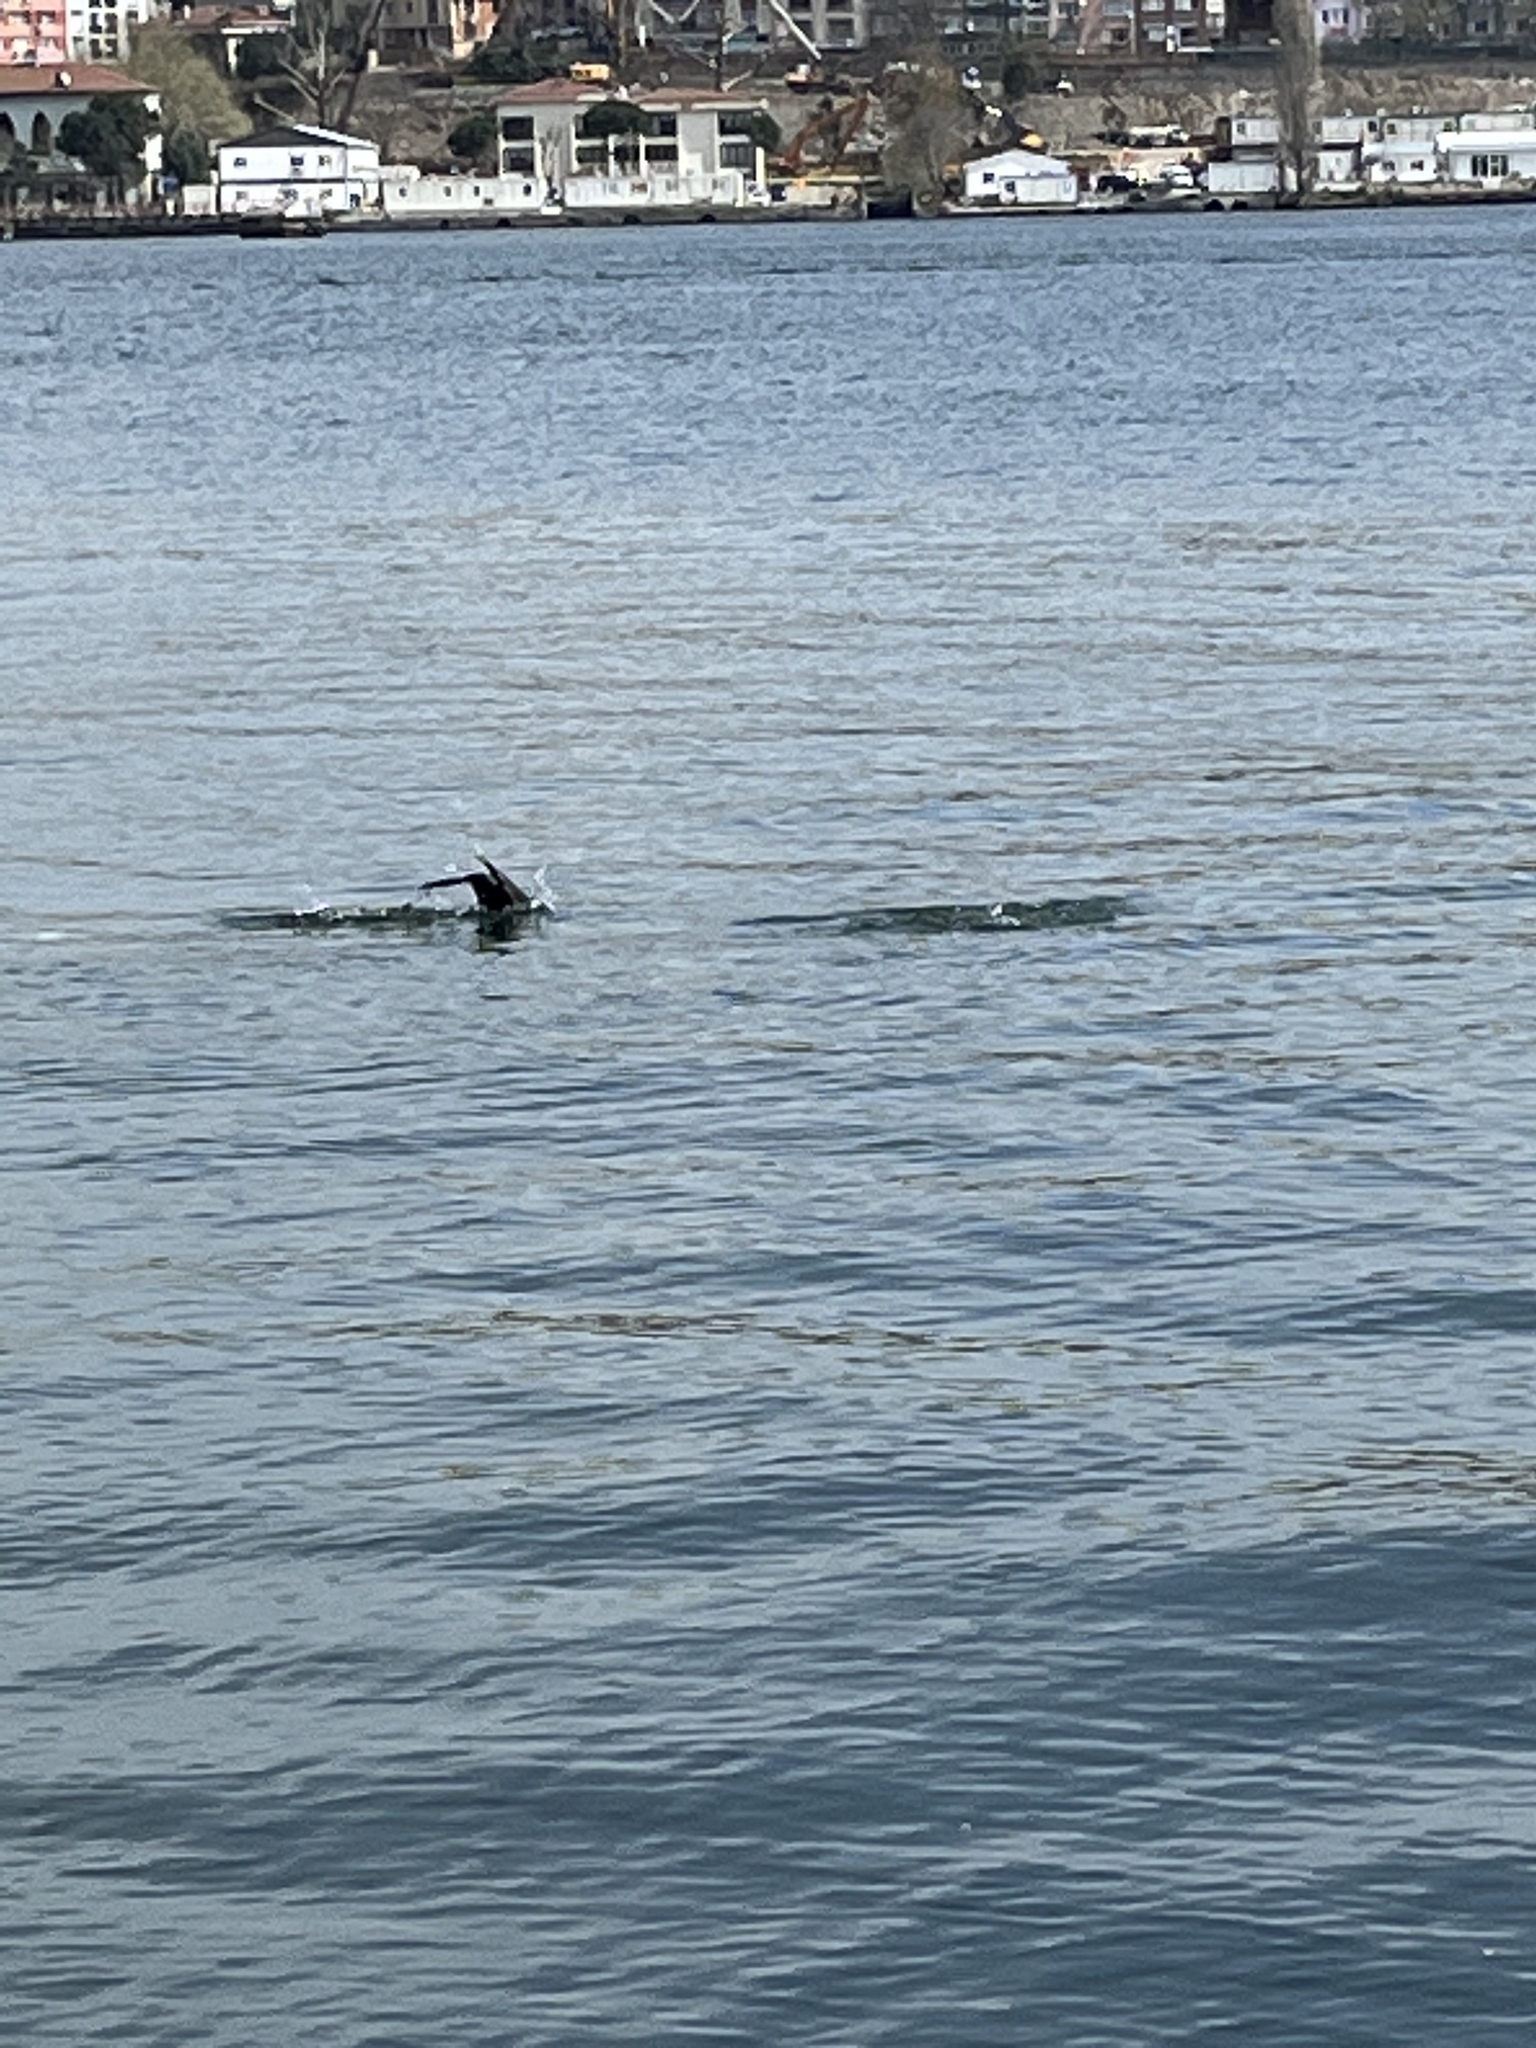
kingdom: Animalia
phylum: Chordata
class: Aves
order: Suliformes
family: Phalacrocoracidae
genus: Phalacrocorax
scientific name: Phalacrocorax carbo
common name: Great cormorant
